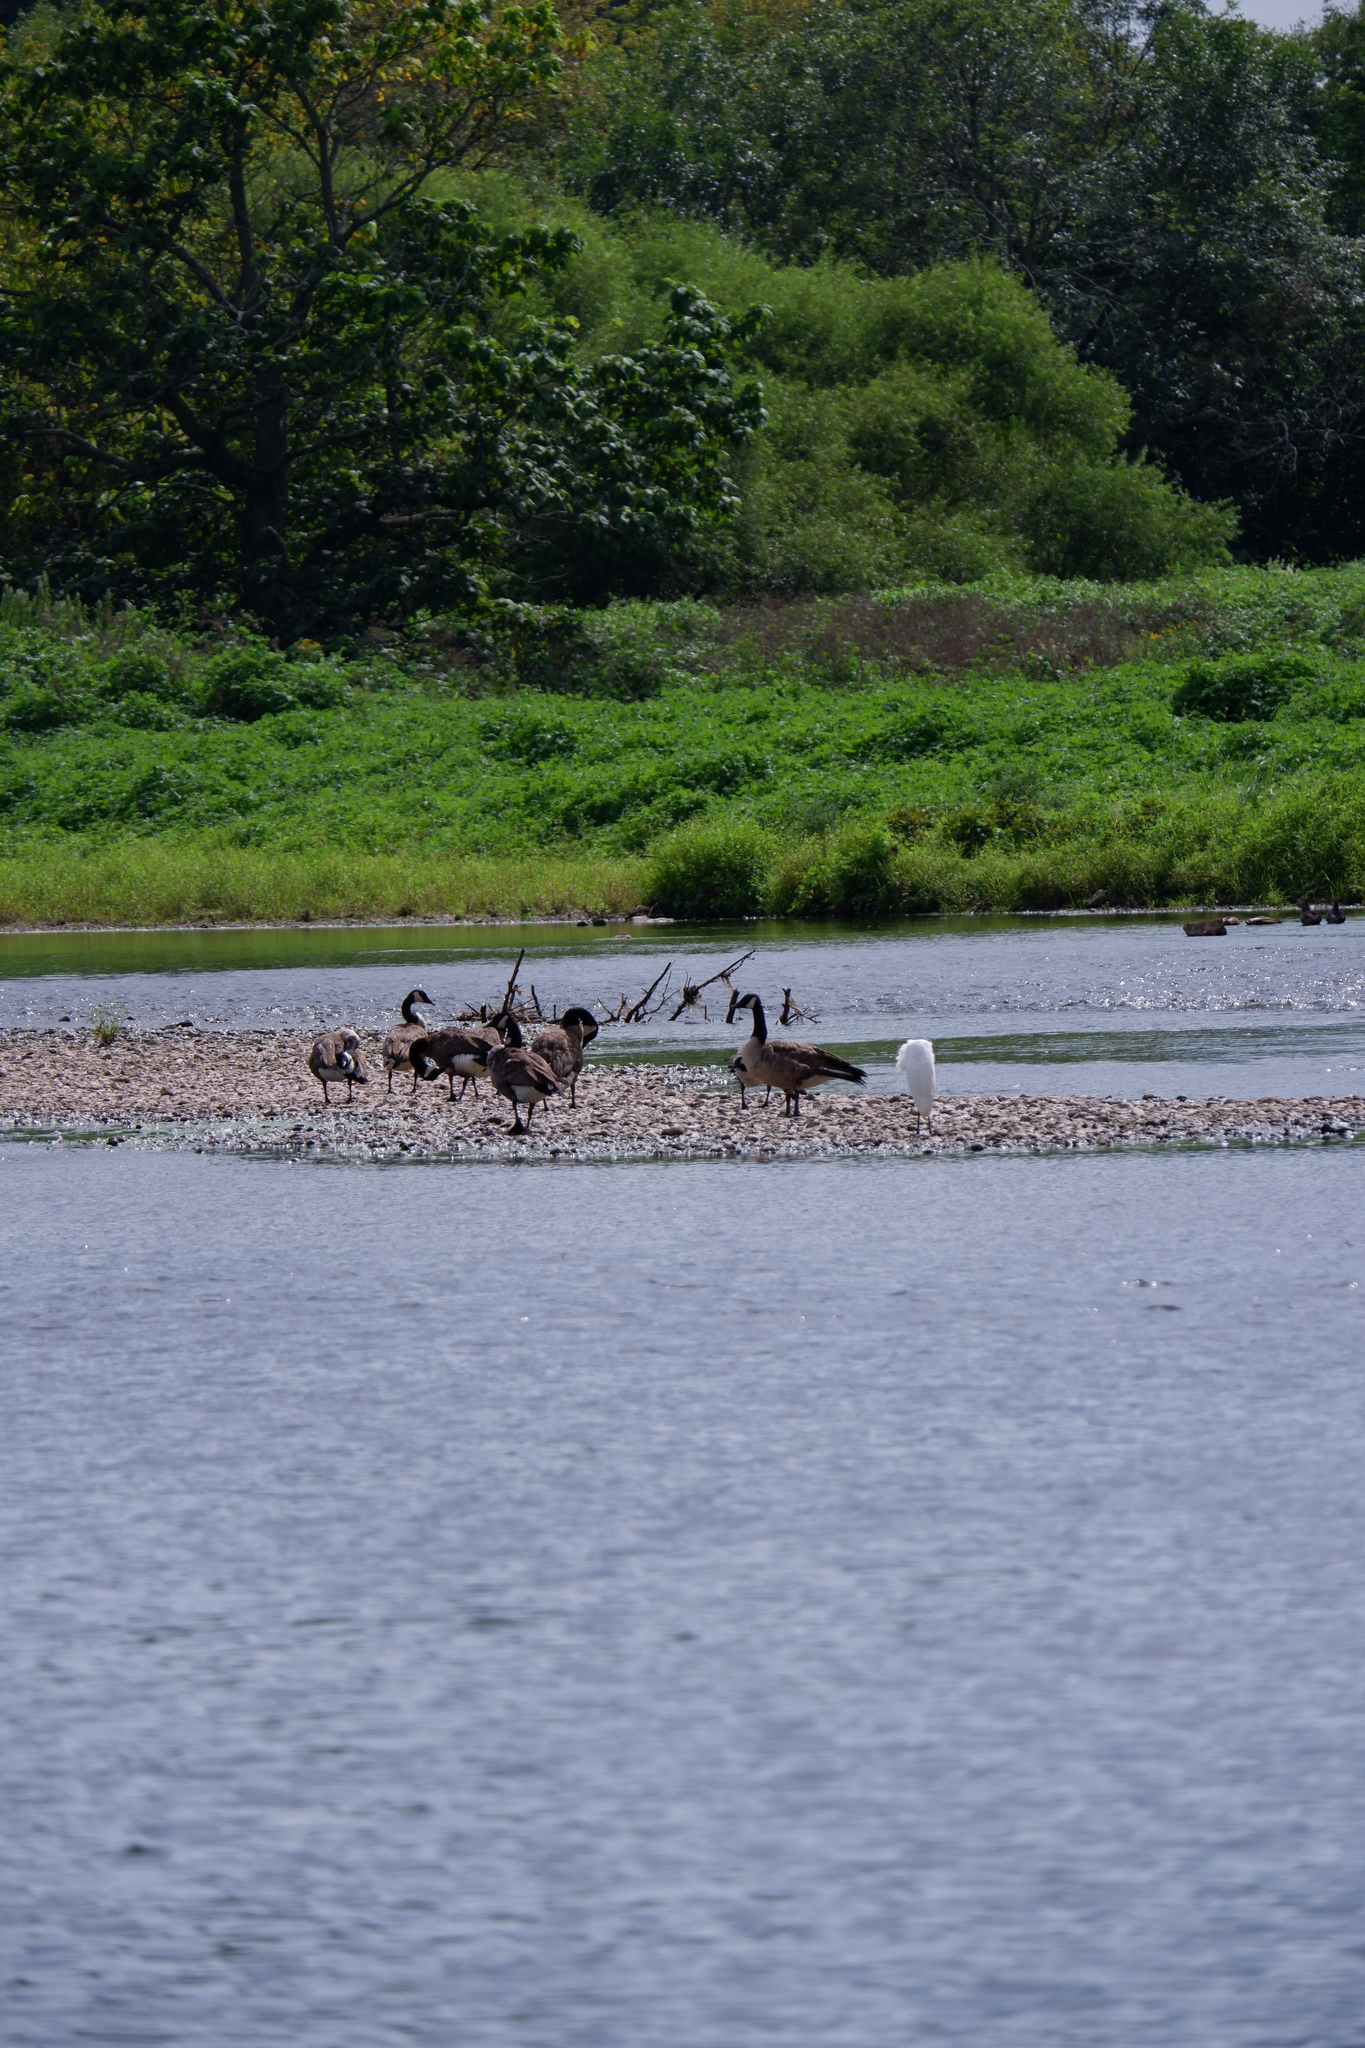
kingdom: Animalia
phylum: Chordata
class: Aves
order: Anseriformes
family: Anatidae
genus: Branta
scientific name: Branta canadensis
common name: Canada goose
